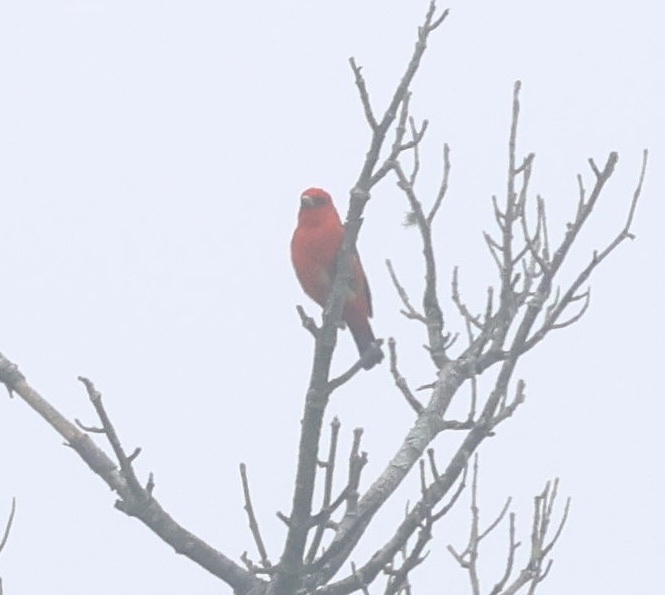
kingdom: Animalia
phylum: Chordata
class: Aves
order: Passeriformes
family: Cardinalidae
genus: Piranga
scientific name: Piranga olivacea
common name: Scarlet tanager
